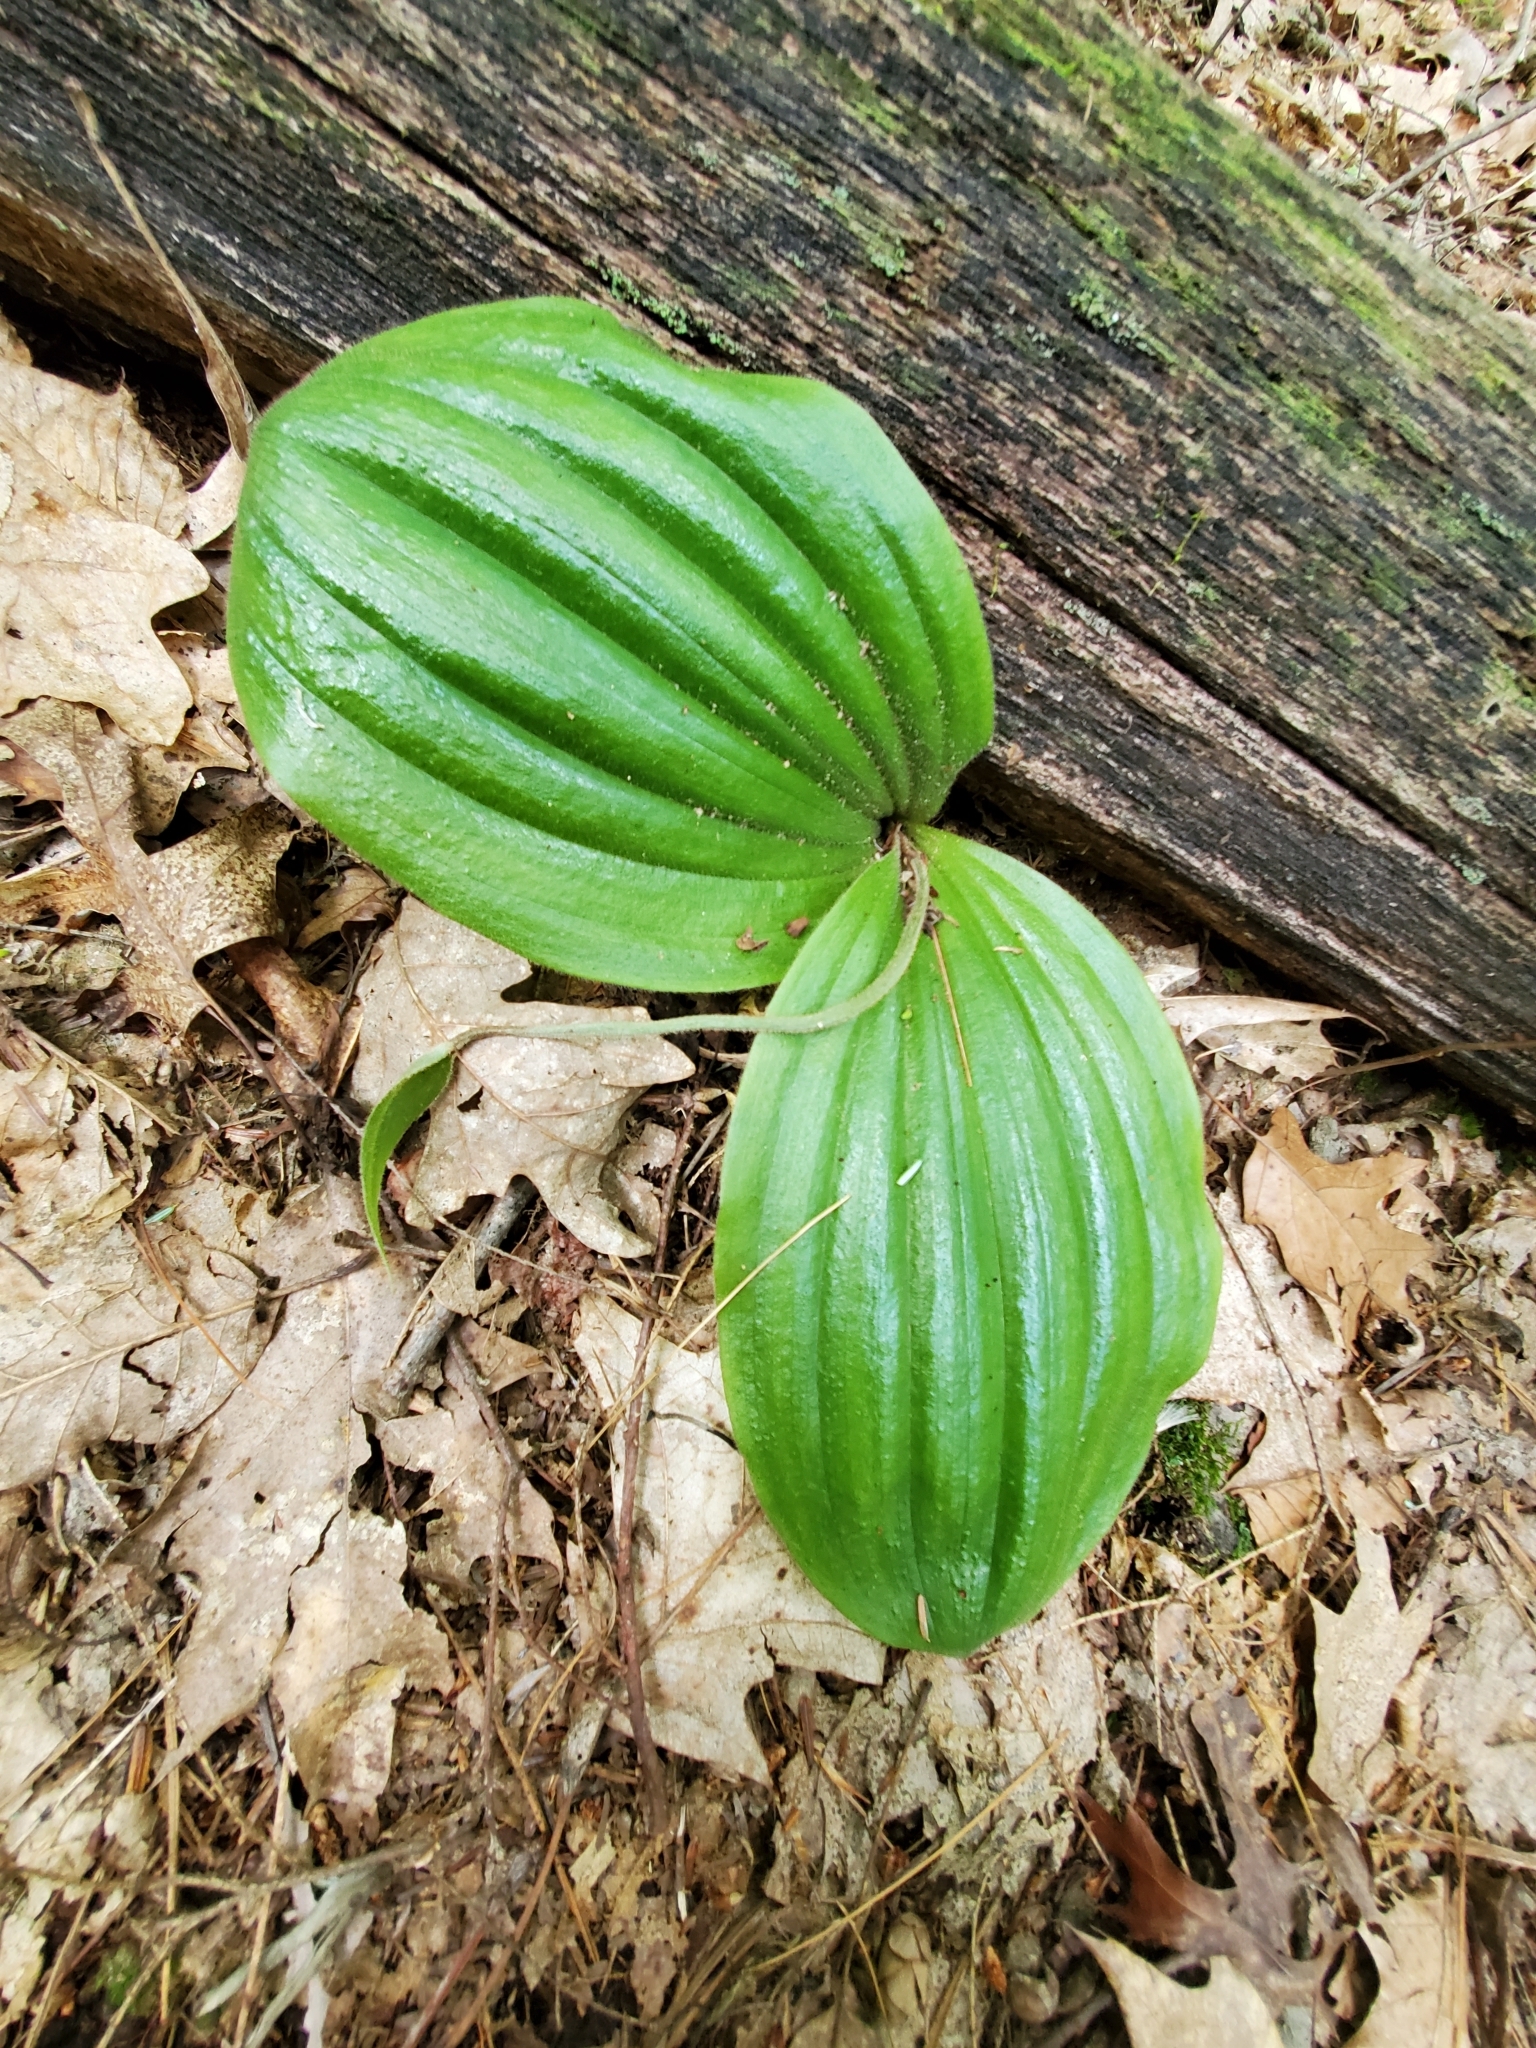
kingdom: Plantae
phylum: Tracheophyta
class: Liliopsida
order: Asparagales
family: Orchidaceae
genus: Cypripedium
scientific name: Cypripedium acaule
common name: Pink lady's-slipper
